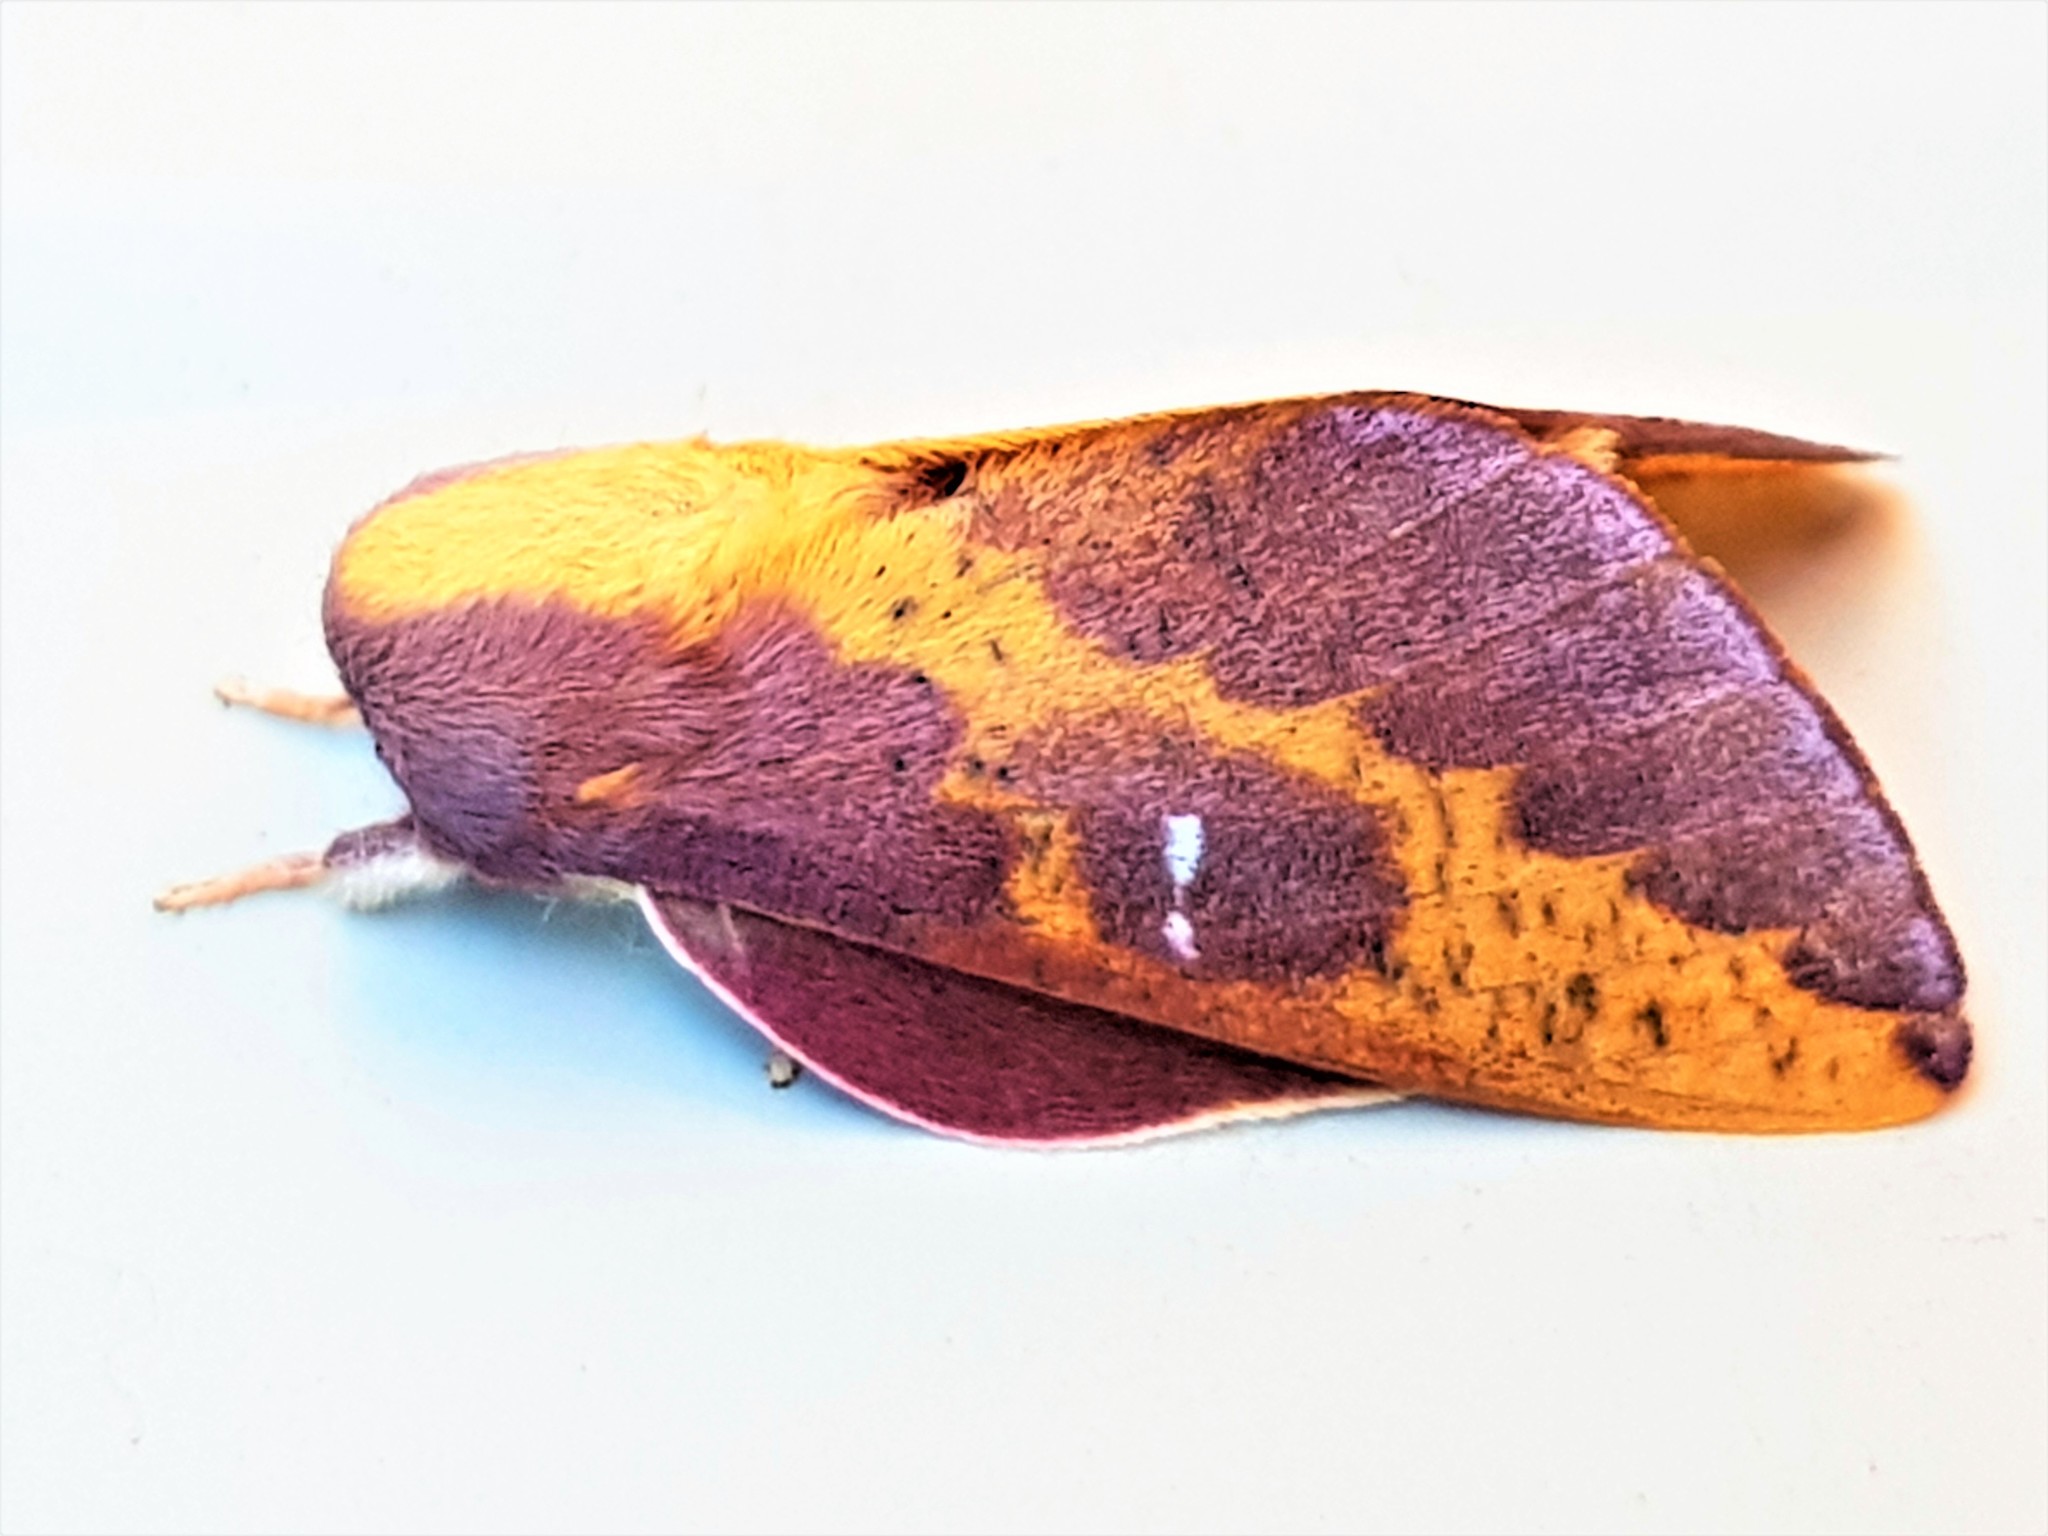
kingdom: Animalia
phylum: Arthropoda
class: Insecta
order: Lepidoptera
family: Saturniidae
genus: Cicia
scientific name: Cicia pelota
